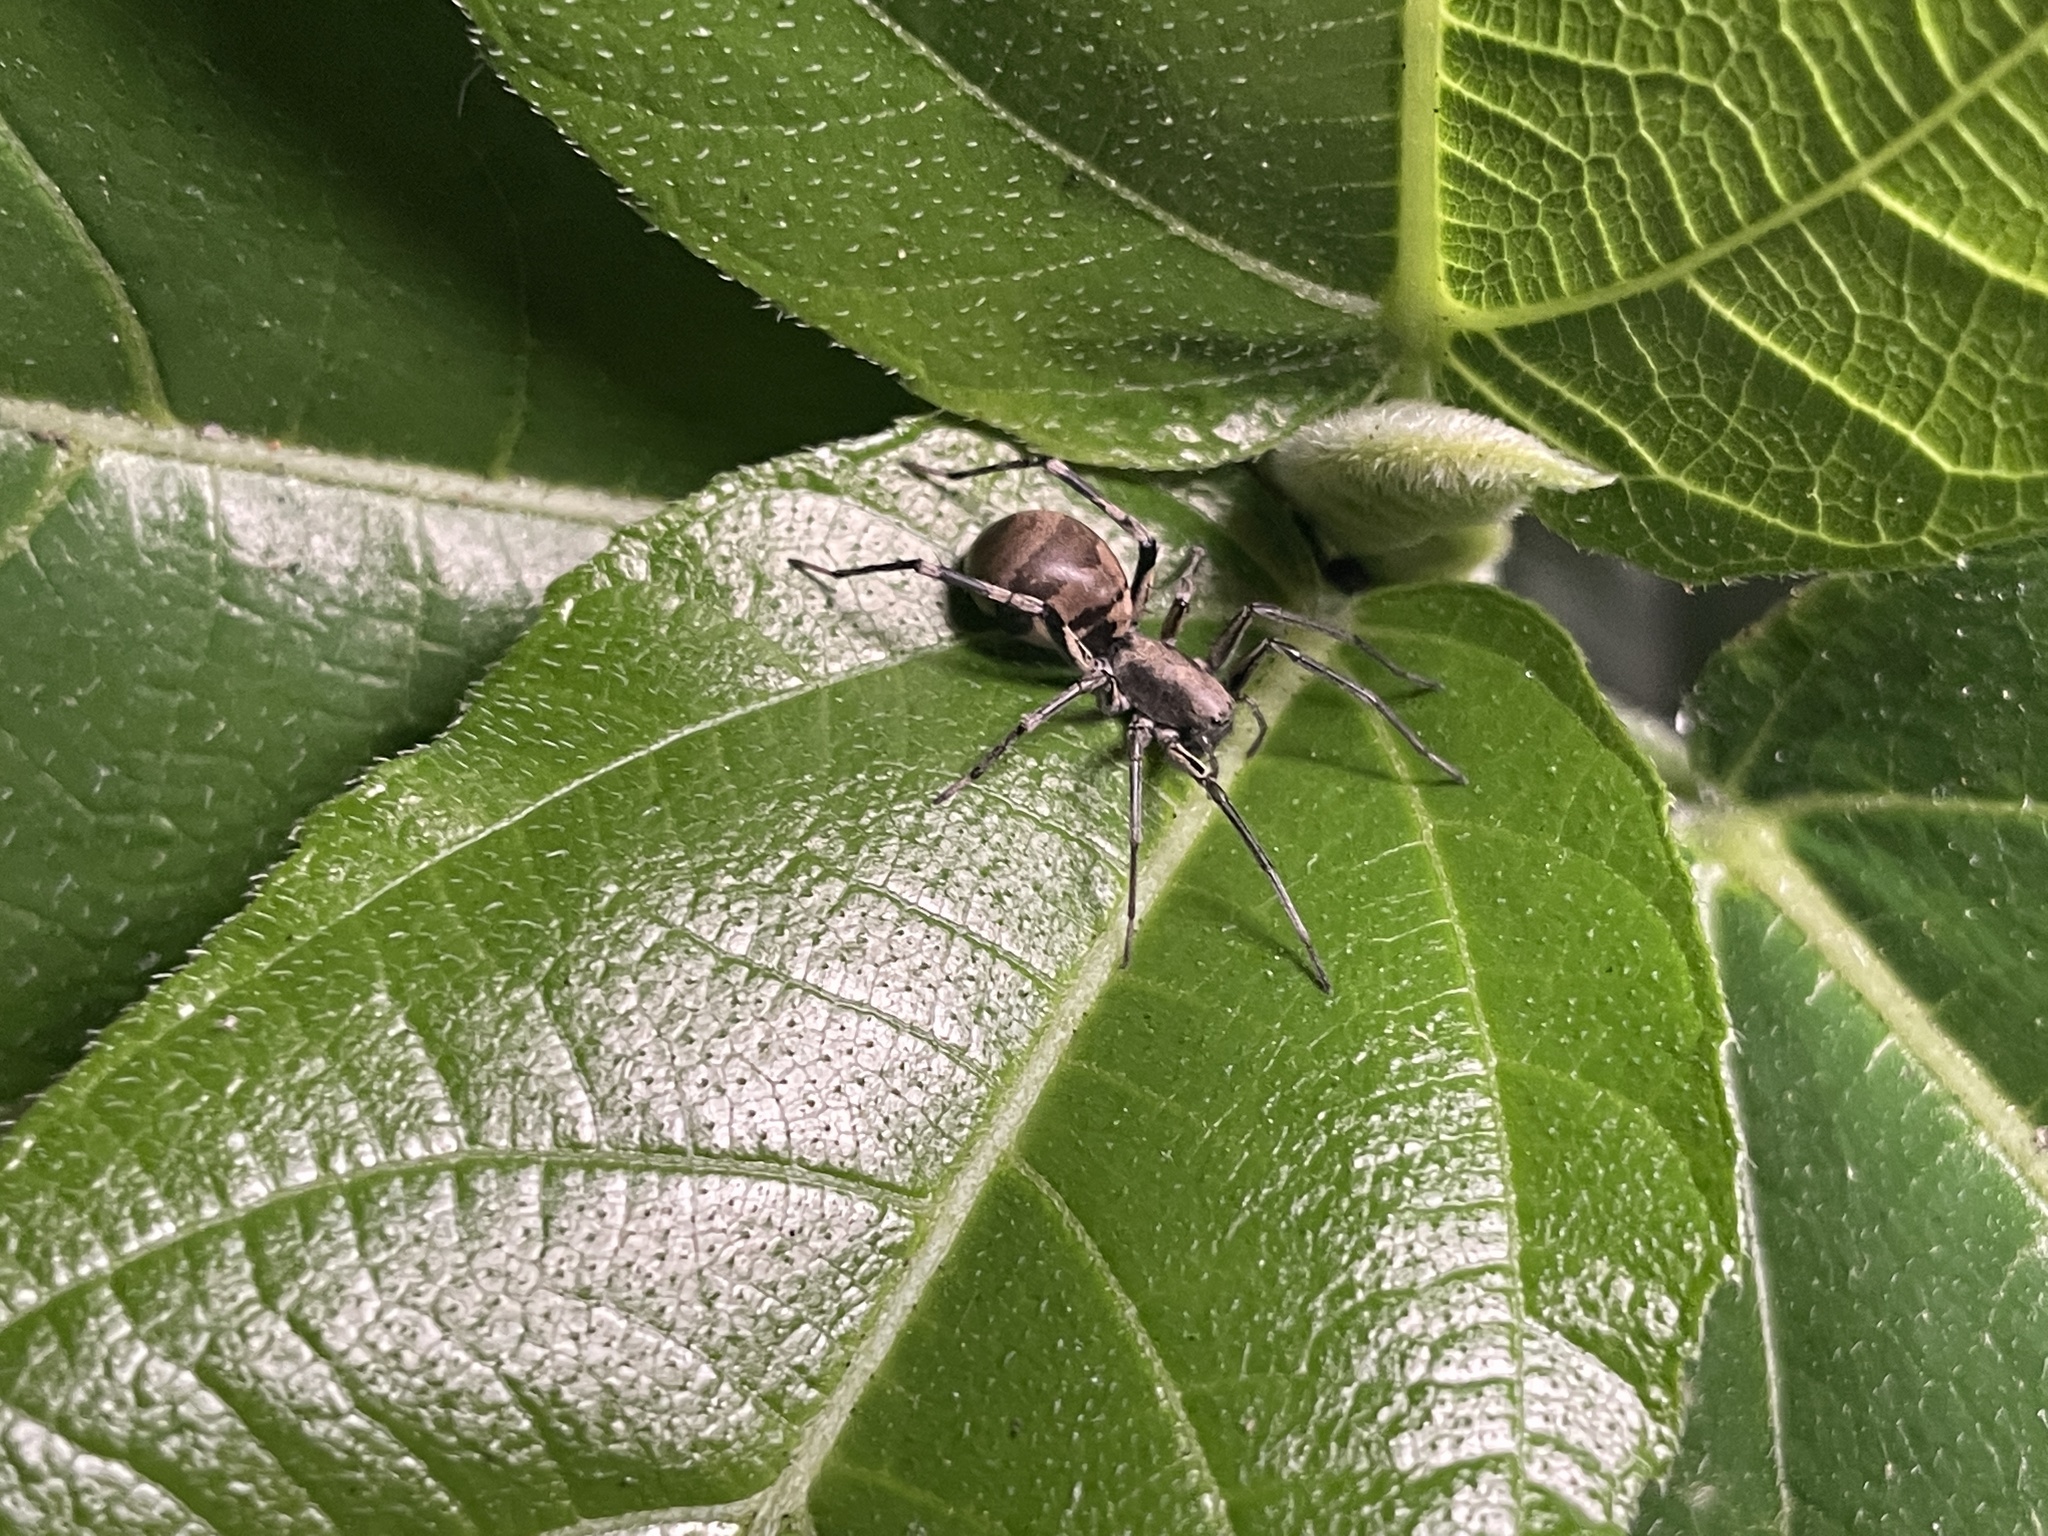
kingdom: Animalia
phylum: Arthropoda
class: Arachnida
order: Araneae
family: Corinnidae
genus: Corinnomma
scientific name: Corinnomma severum
